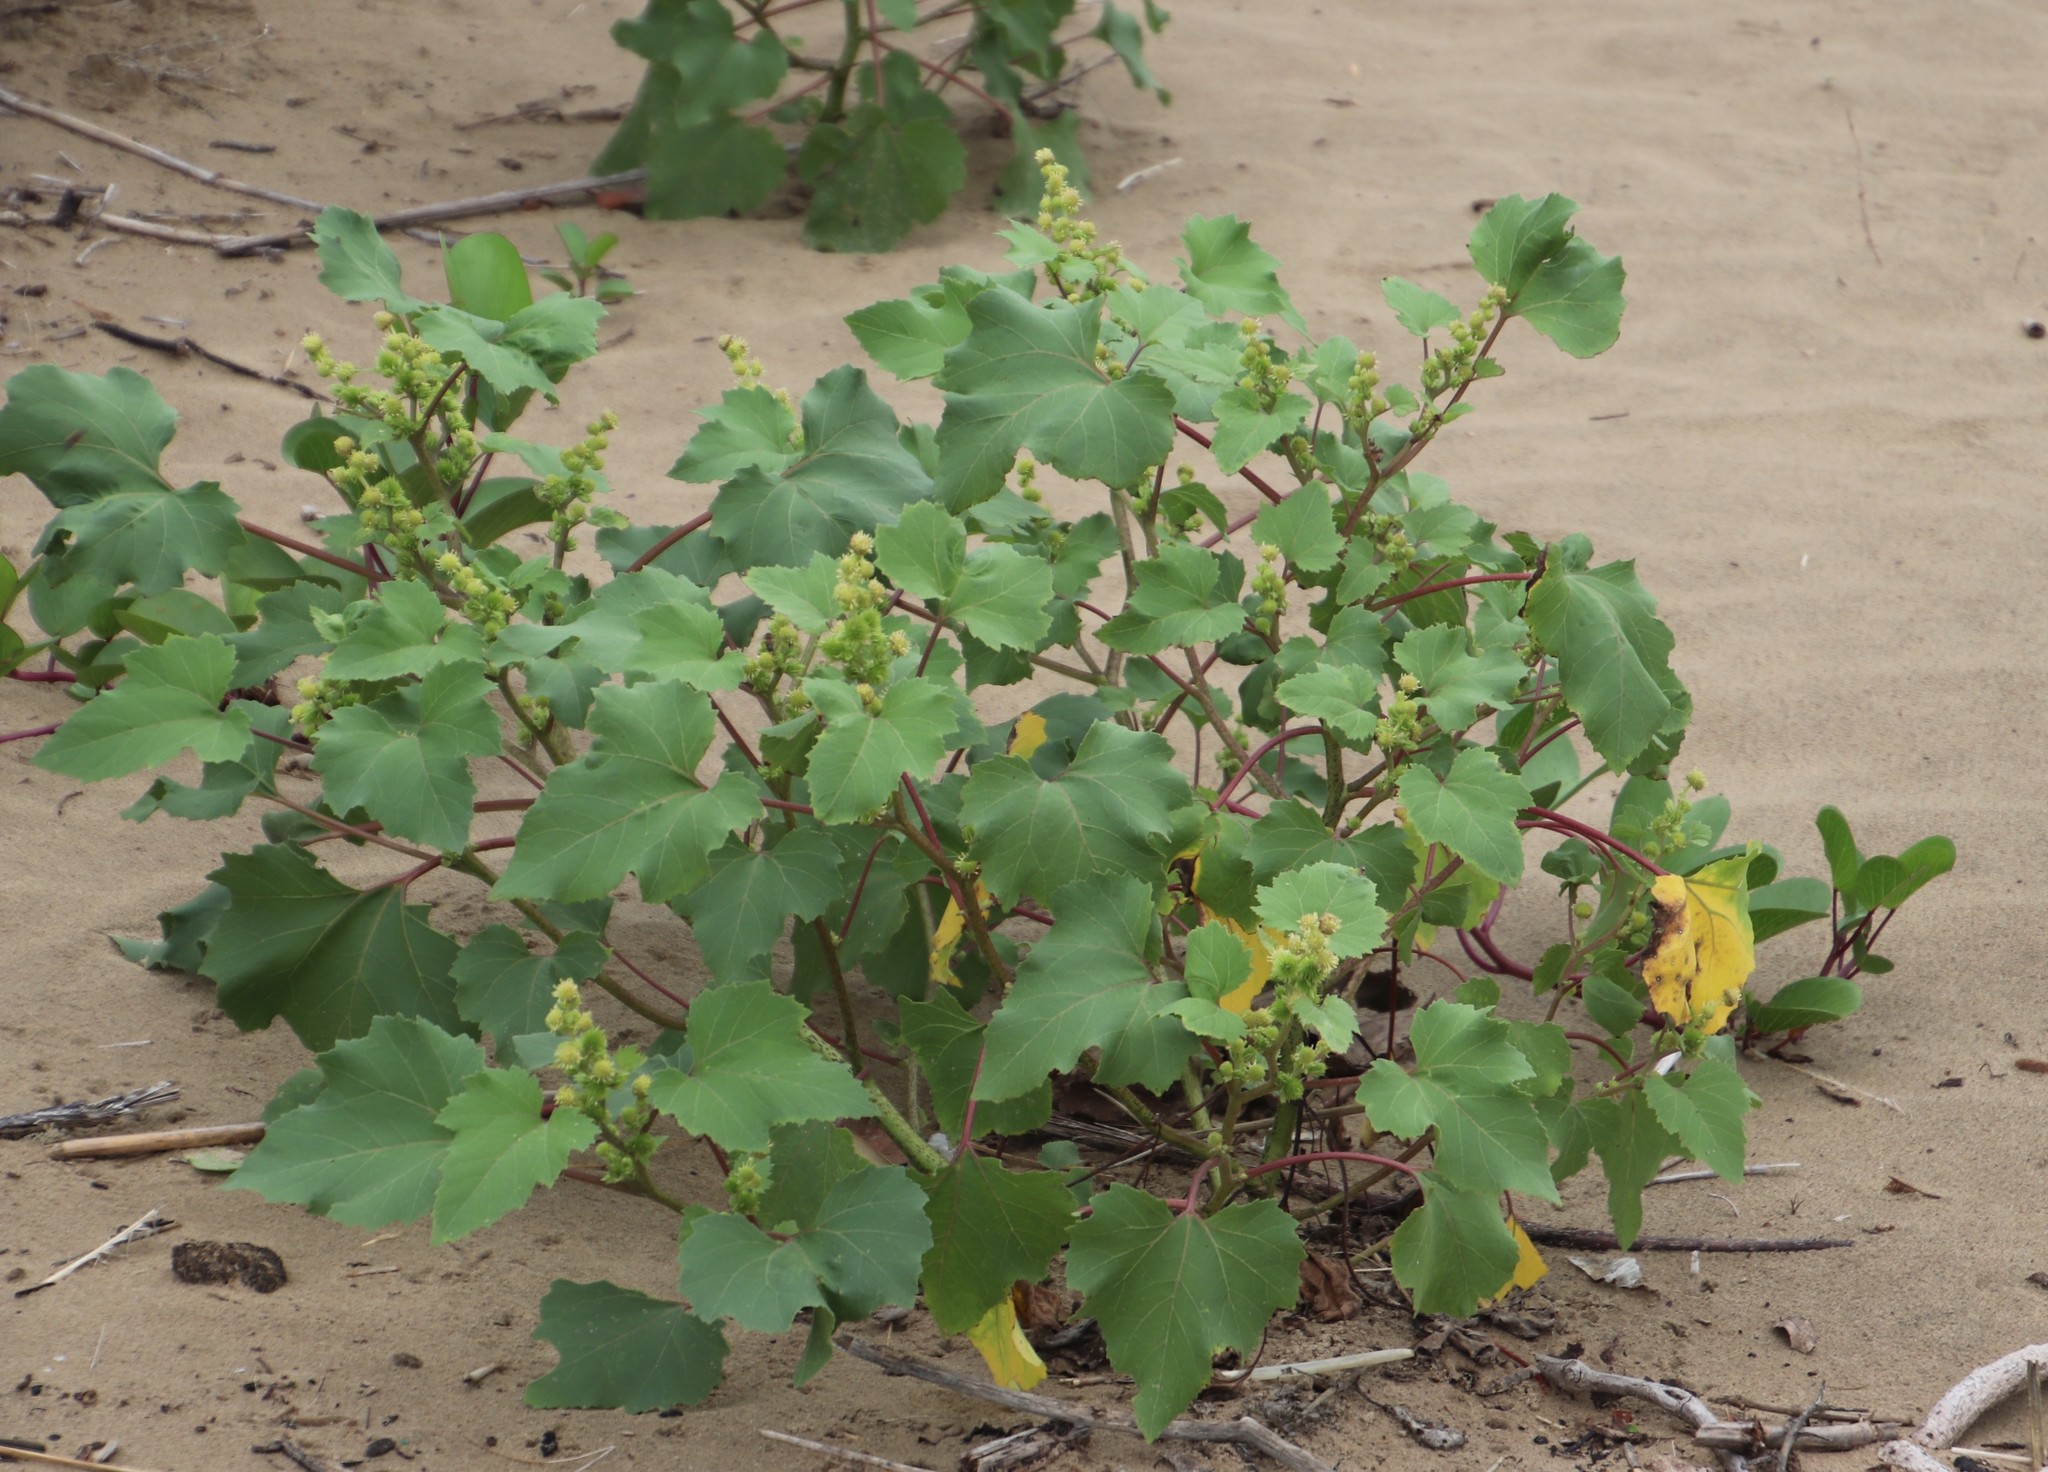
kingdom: Plantae
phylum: Tracheophyta
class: Magnoliopsida
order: Asterales
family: Asteraceae
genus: Xanthium
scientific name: Xanthium strumarium
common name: Rough cocklebur
